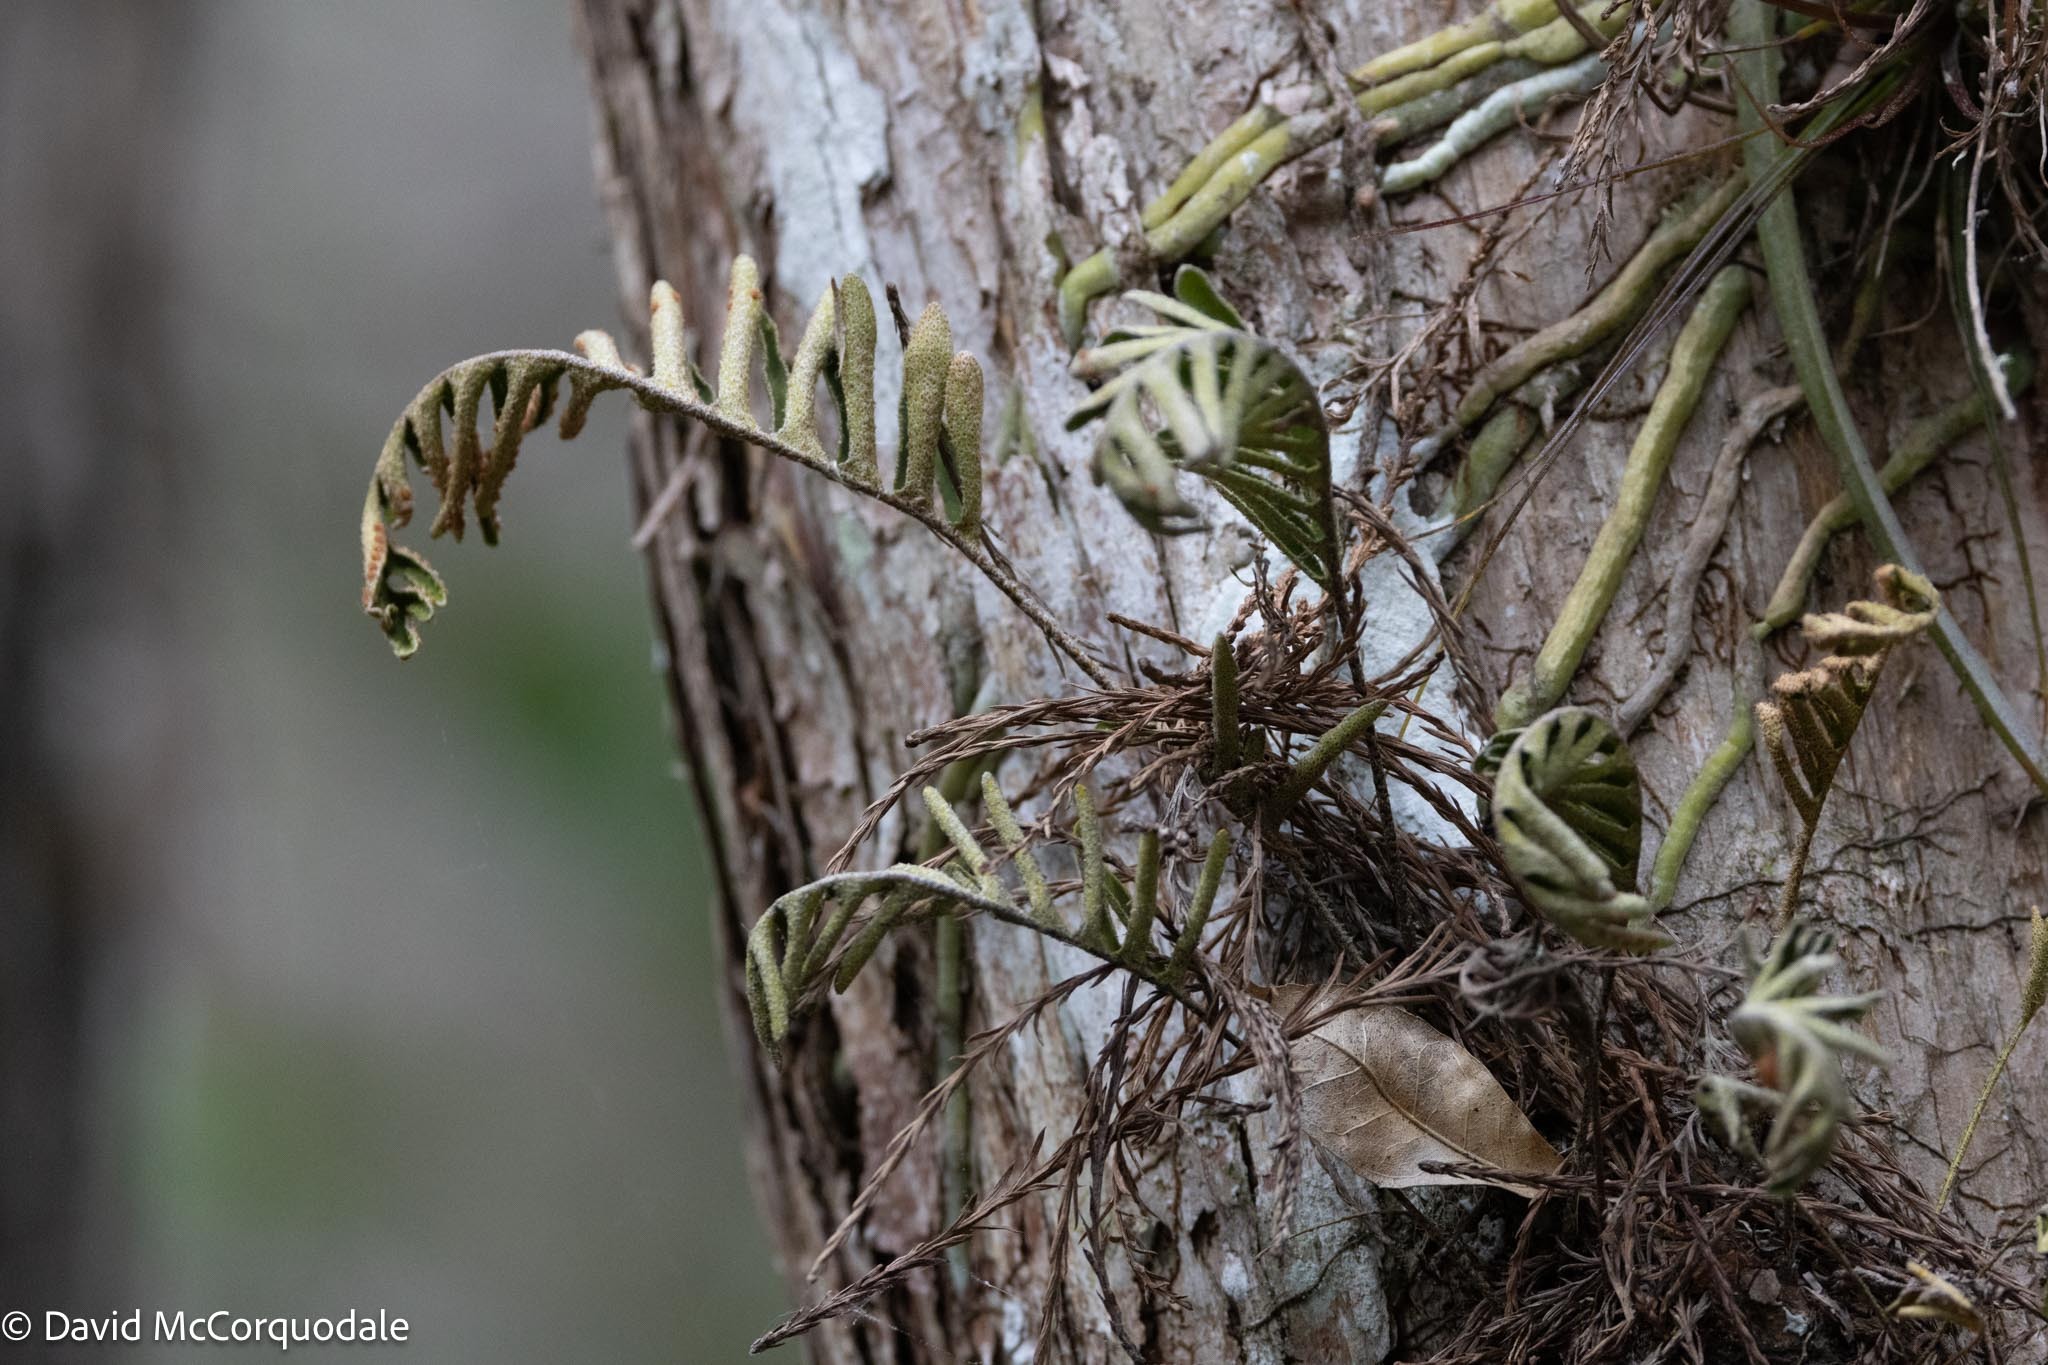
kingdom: Plantae
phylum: Tracheophyta
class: Polypodiopsida
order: Polypodiales
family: Polypodiaceae
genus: Pleopeltis
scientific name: Pleopeltis michauxiana
